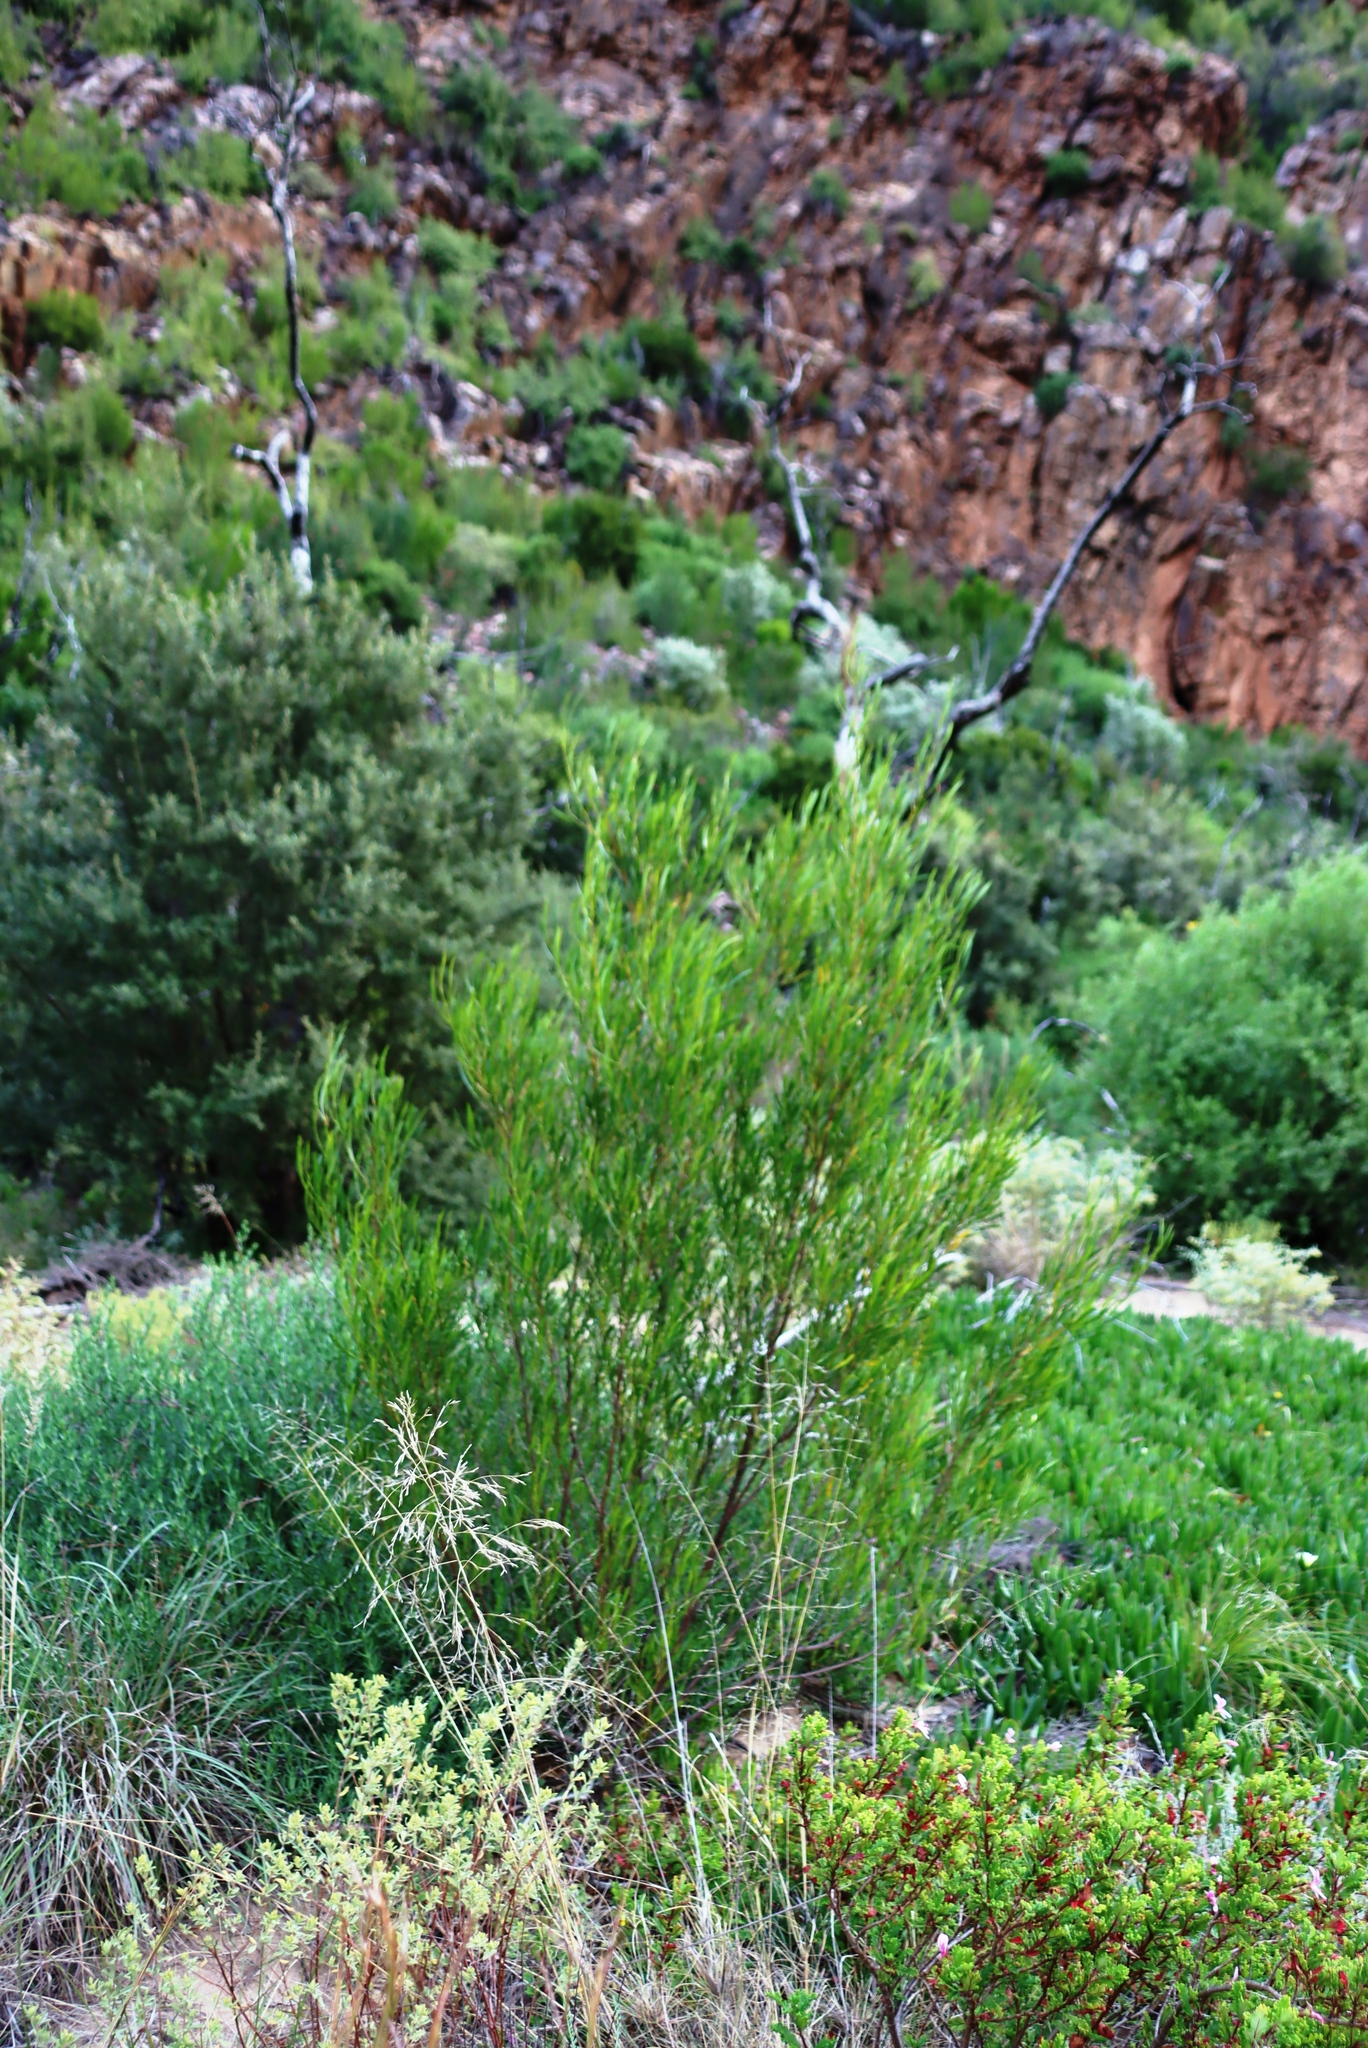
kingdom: Plantae
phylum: Tracheophyta
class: Magnoliopsida
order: Sapindales
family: Sapindaceae
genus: Dodonaea
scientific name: Dodonaea viscosa
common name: Hopbush
